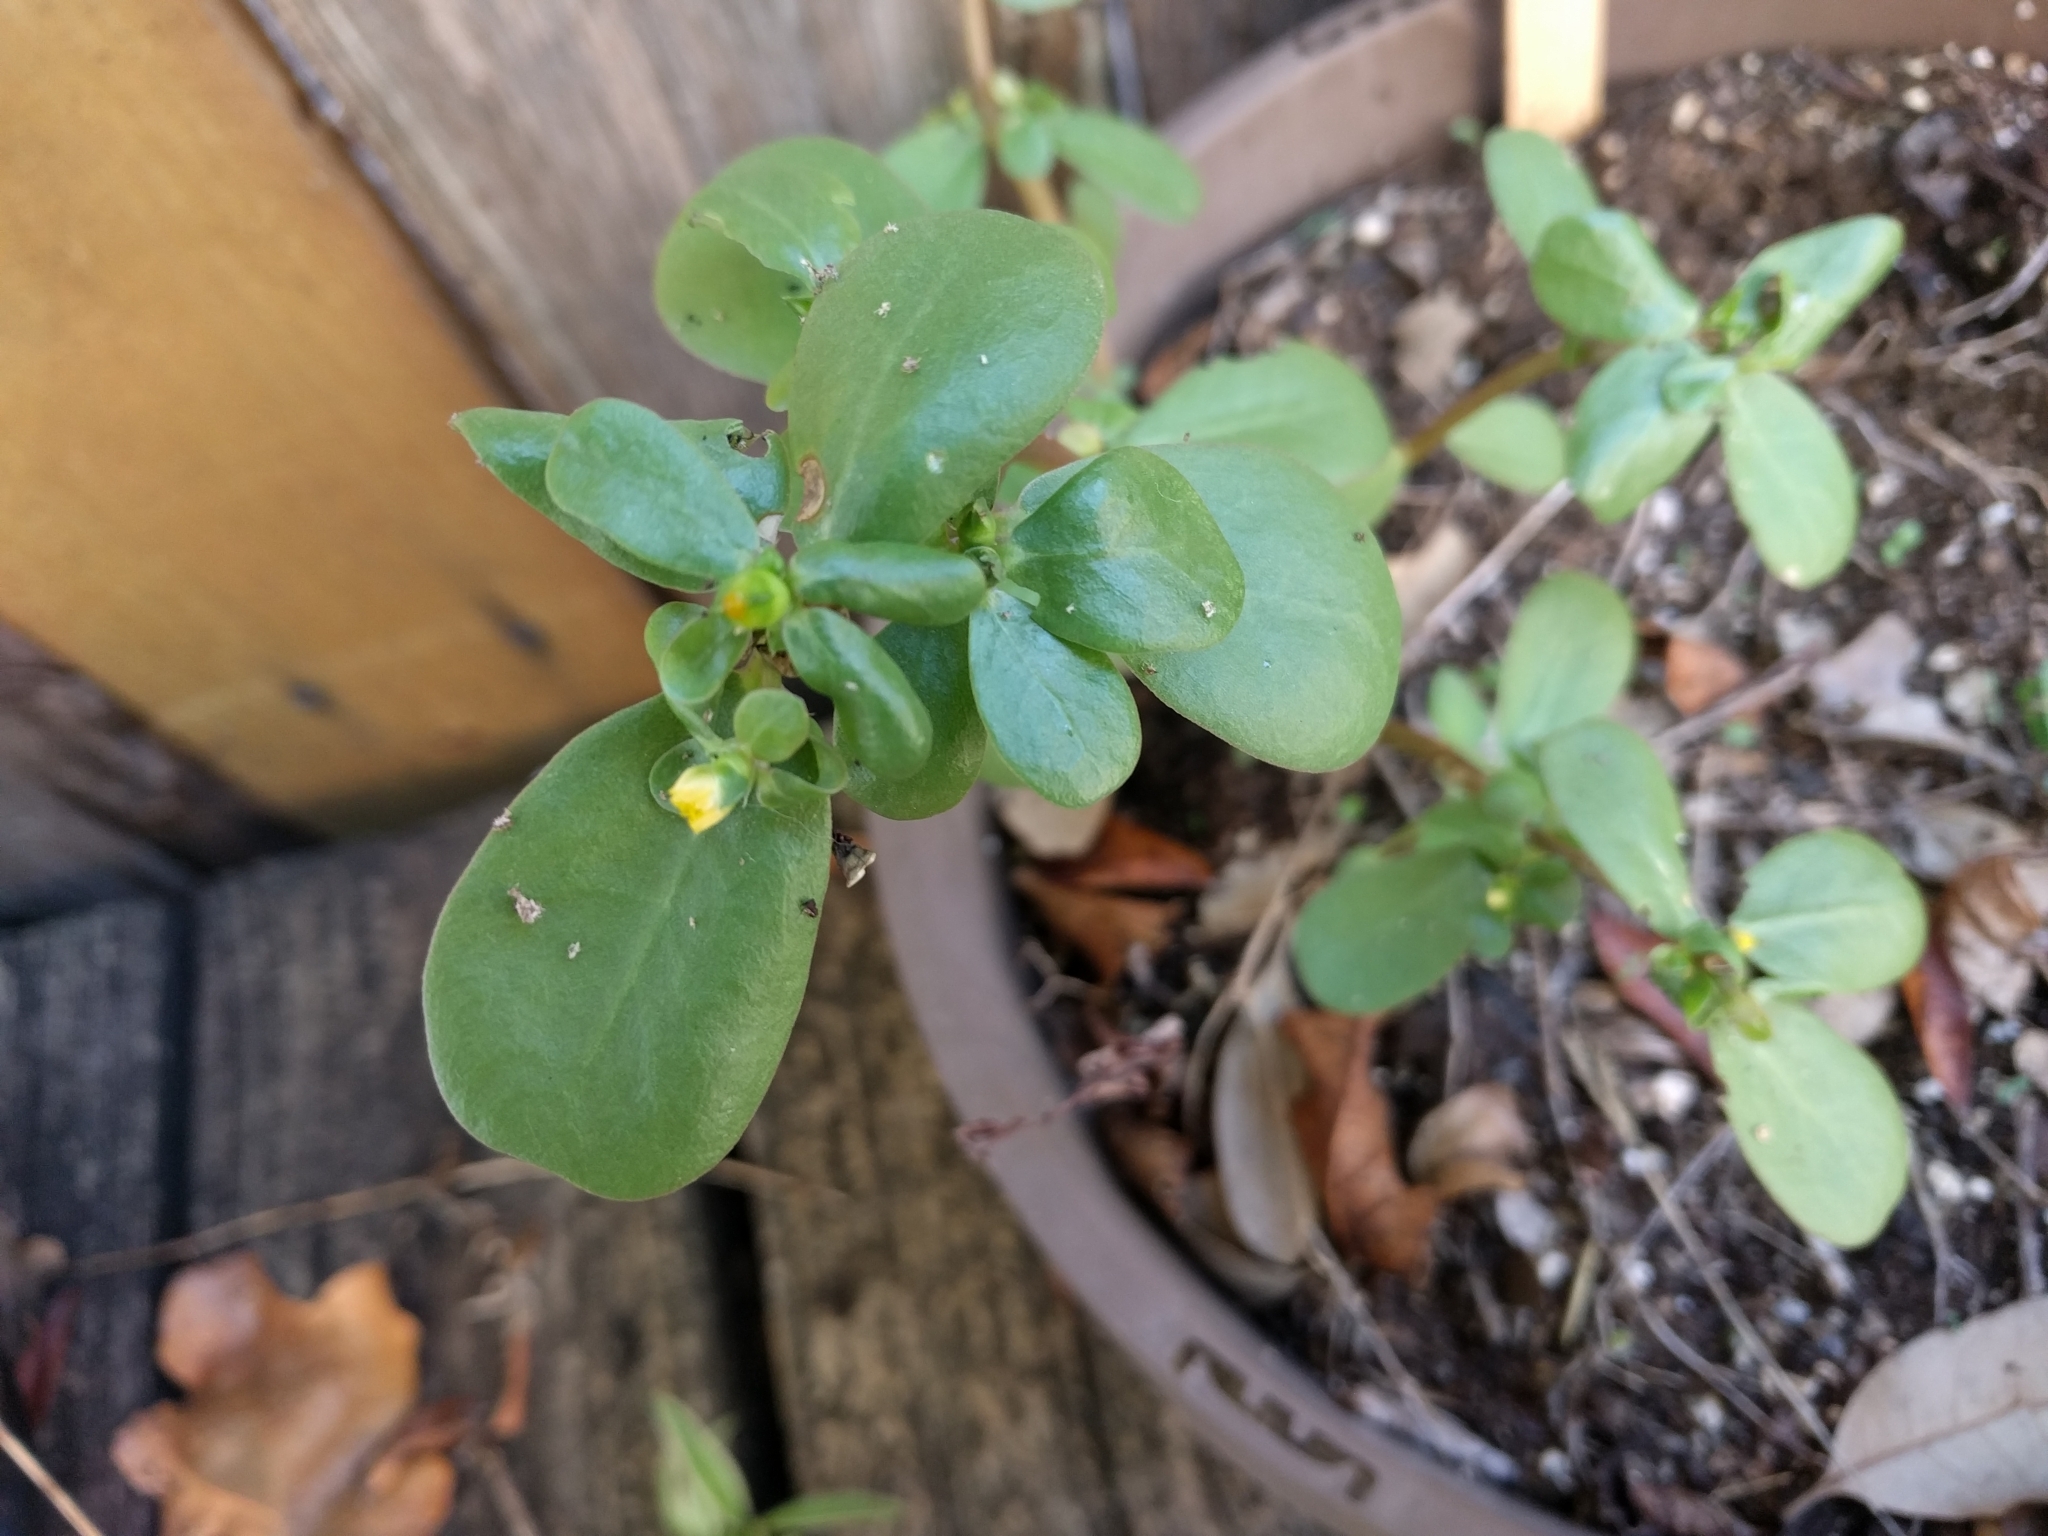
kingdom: Plantae
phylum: Tracheophyta
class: Magnoliopsida
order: Caryophyllales
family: Portulacaceae
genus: Portulaca
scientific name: Portulaca oleracea
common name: Common purslane
